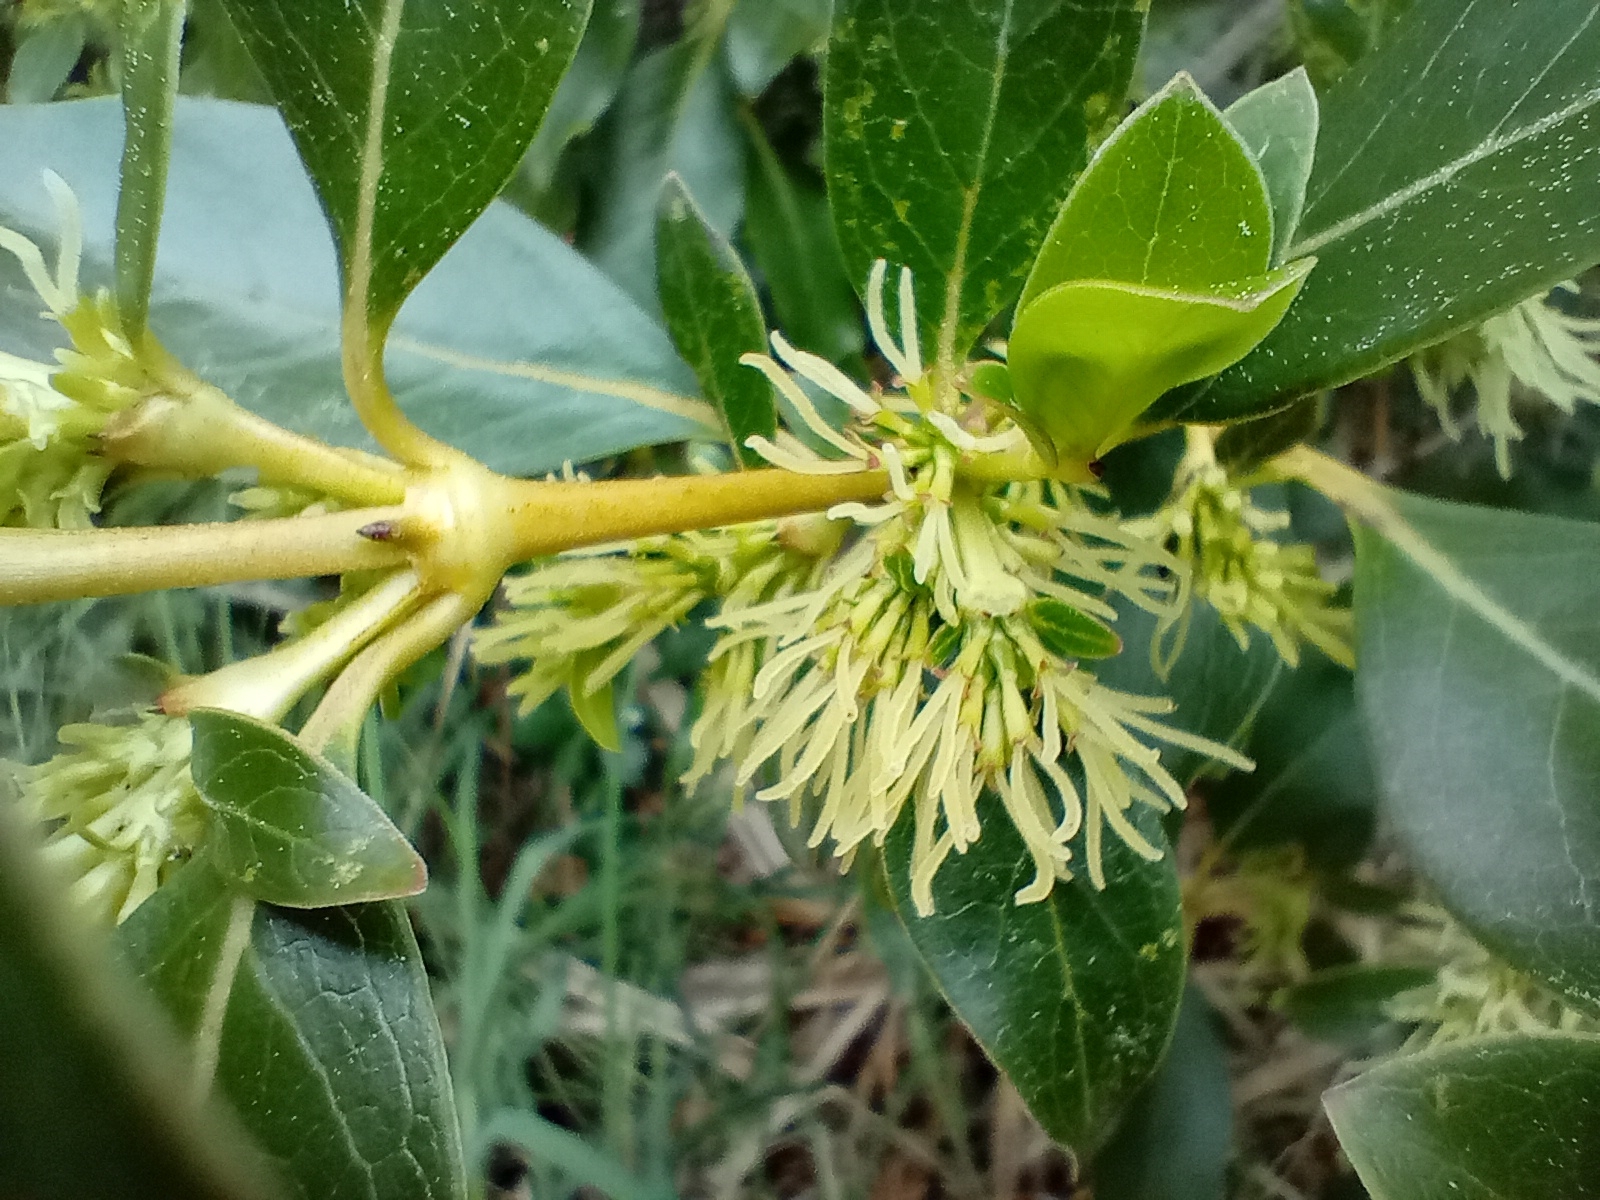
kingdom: Plantae
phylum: Tracheophyta
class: Magnoliopsida
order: Gentianales
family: Rubiaceae
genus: Coprosma
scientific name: Coprosma robusta
